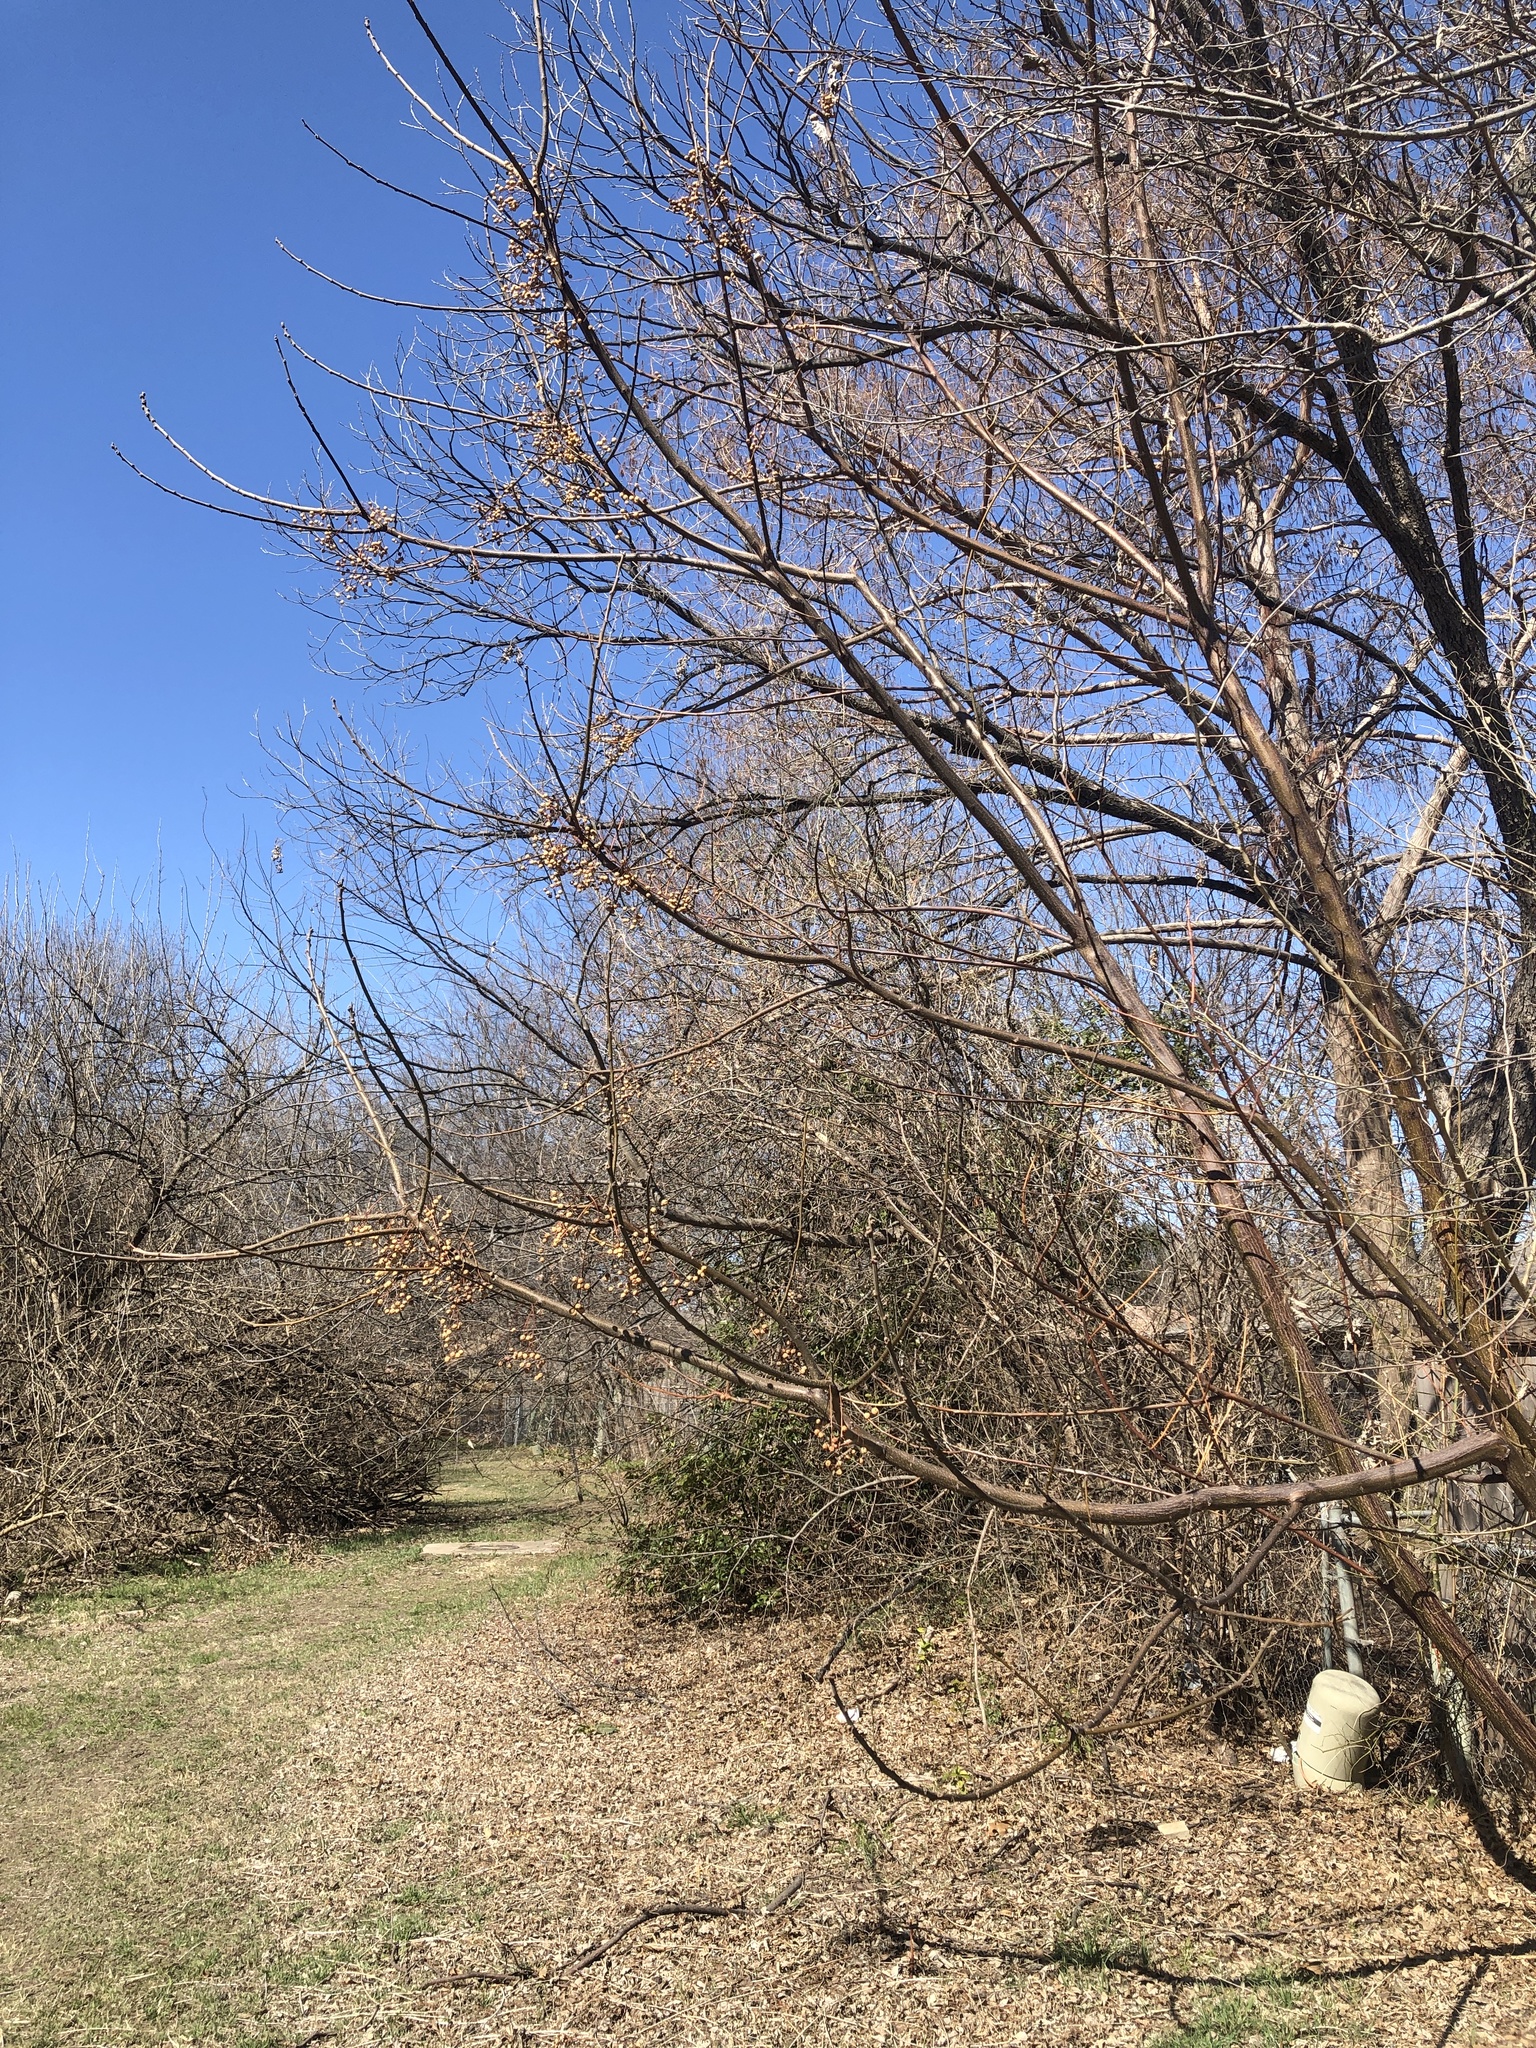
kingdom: Plantae
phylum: Tracheophyta
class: Magnoliopsida
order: Sapindales
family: Meliaceae
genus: Melia
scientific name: Melia azedarach
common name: Chinaberrytree
